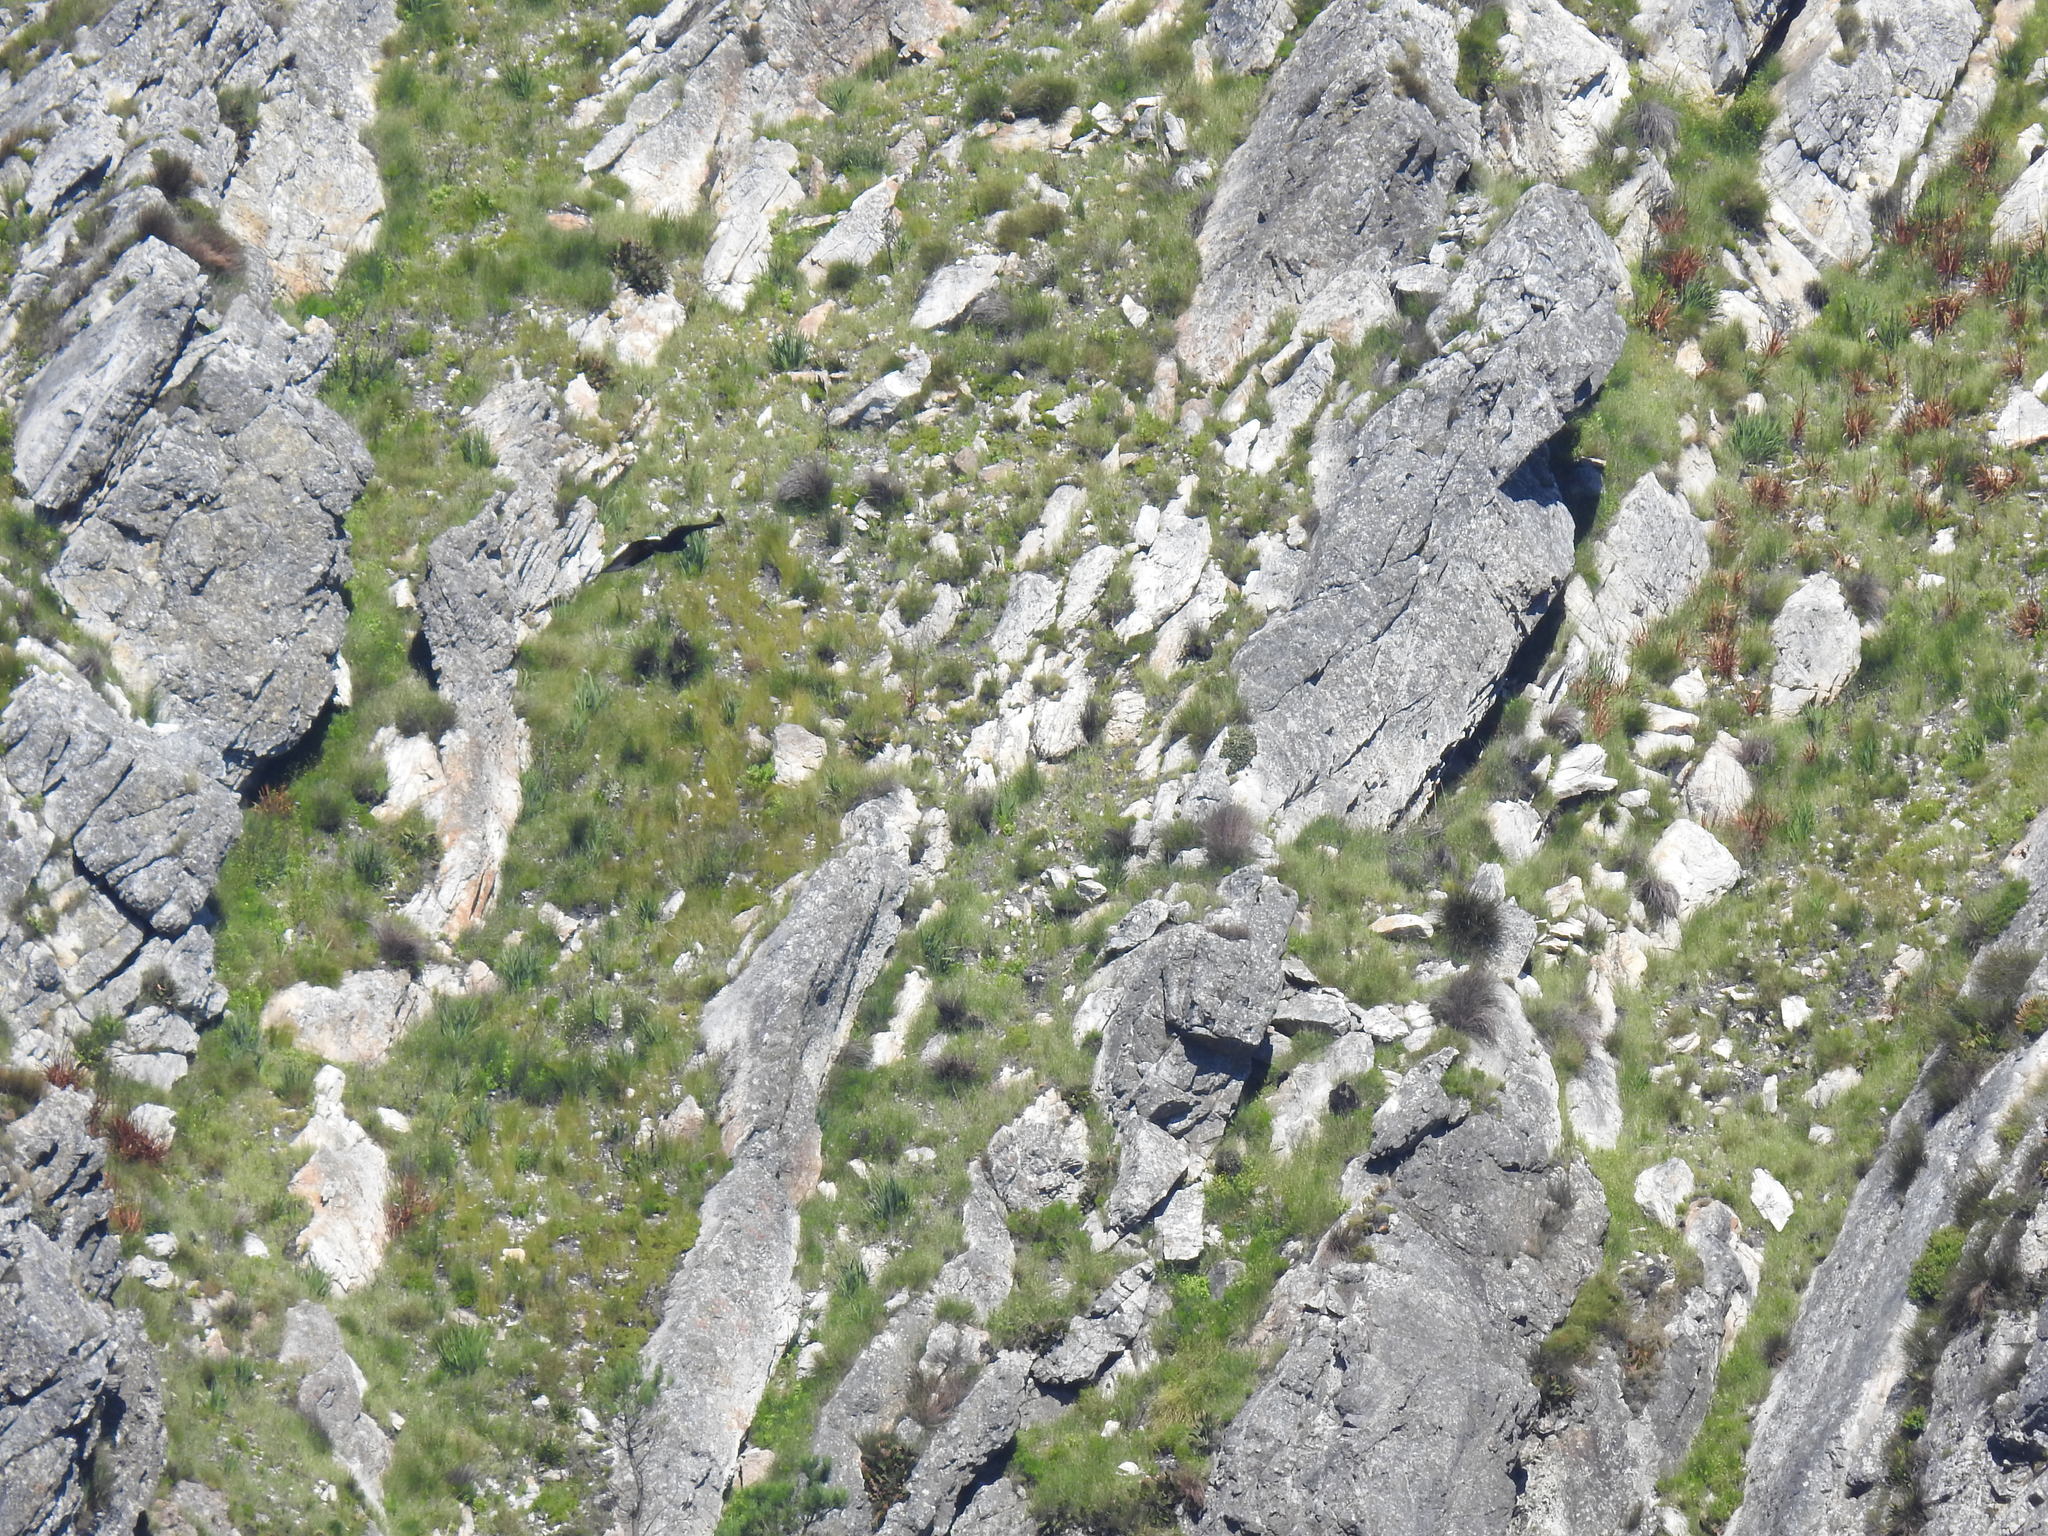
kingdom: Animalia
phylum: Chordata
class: Aves
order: Accipitriformes
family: Accipitridae
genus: Aquila
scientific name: Aquila verreauxii
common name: Verreaux's eagle
